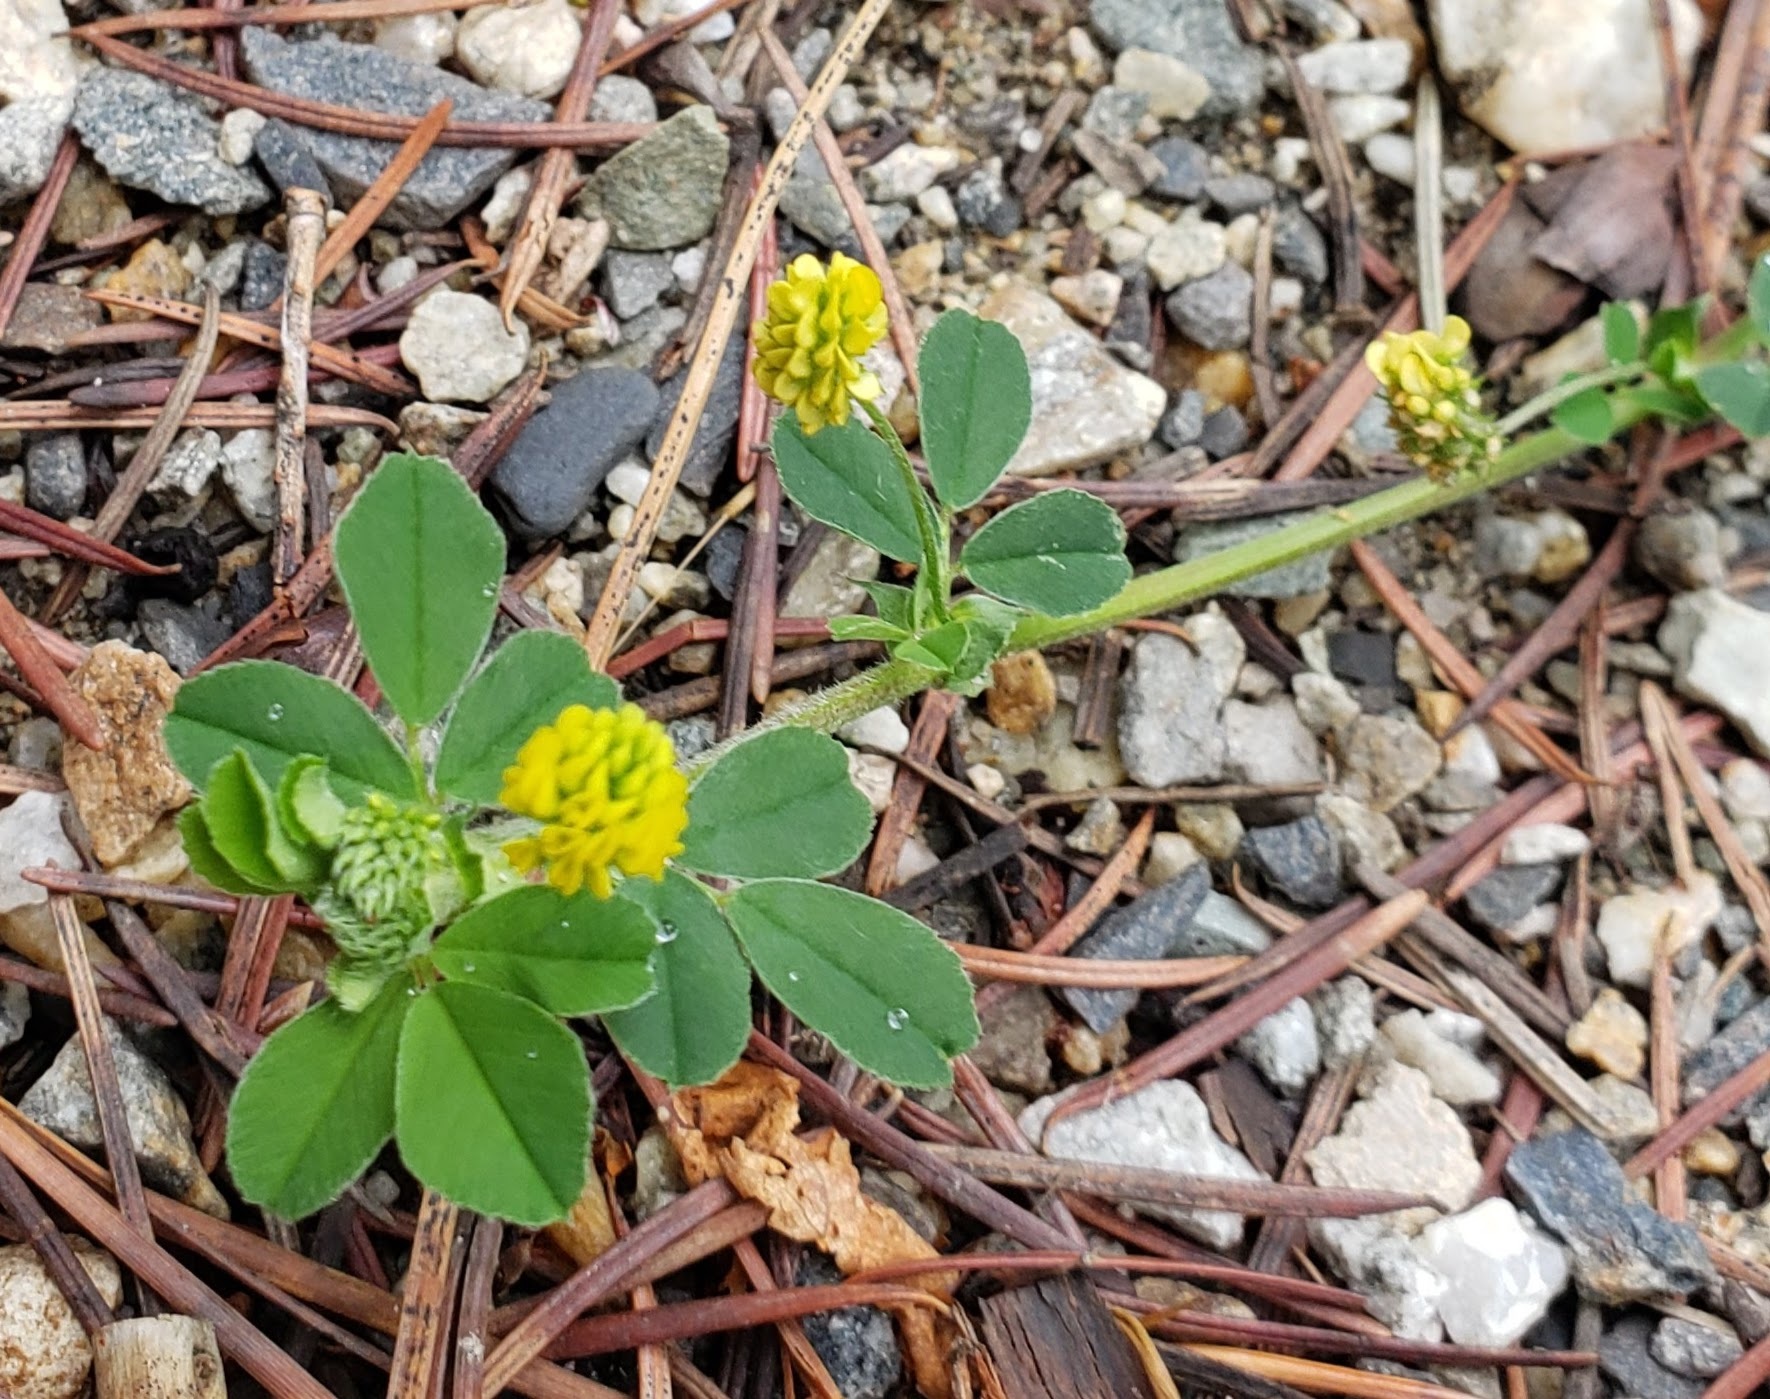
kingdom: Plantae
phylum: Tracheophyta
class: Magnoliopsida
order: Fabales
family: Fabaceae
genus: Medicago
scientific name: Medicago lupulina
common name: Black medick
